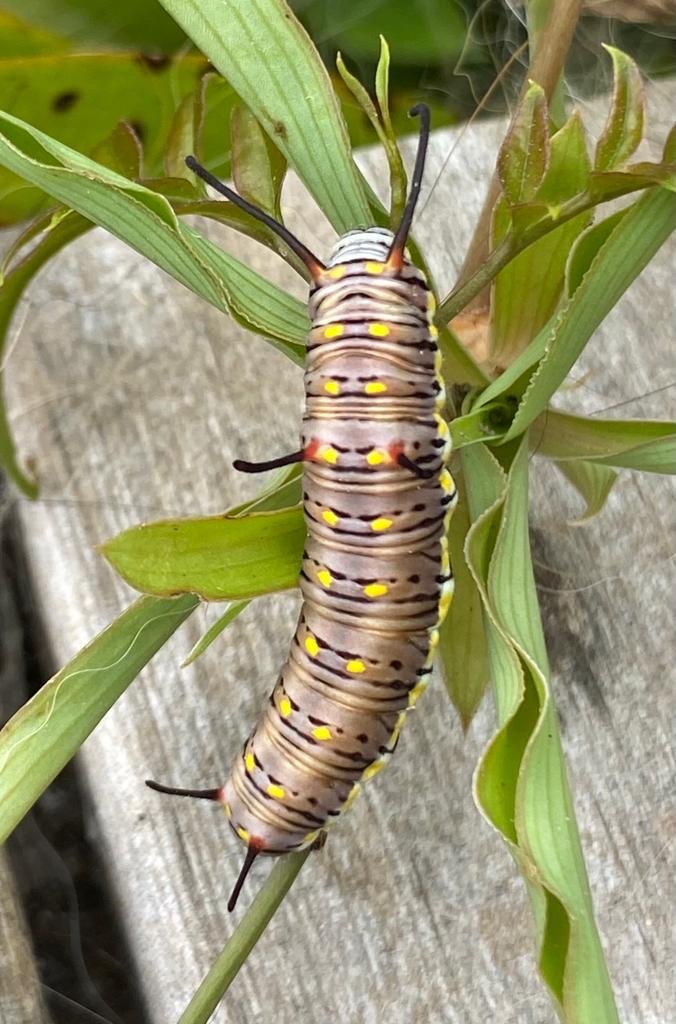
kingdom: Animalia
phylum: Arthropoda
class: Insecta
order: Lepidoptera
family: Nymphalidae
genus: Danaus
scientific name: Danaus chrysippus
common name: Plain tiger
